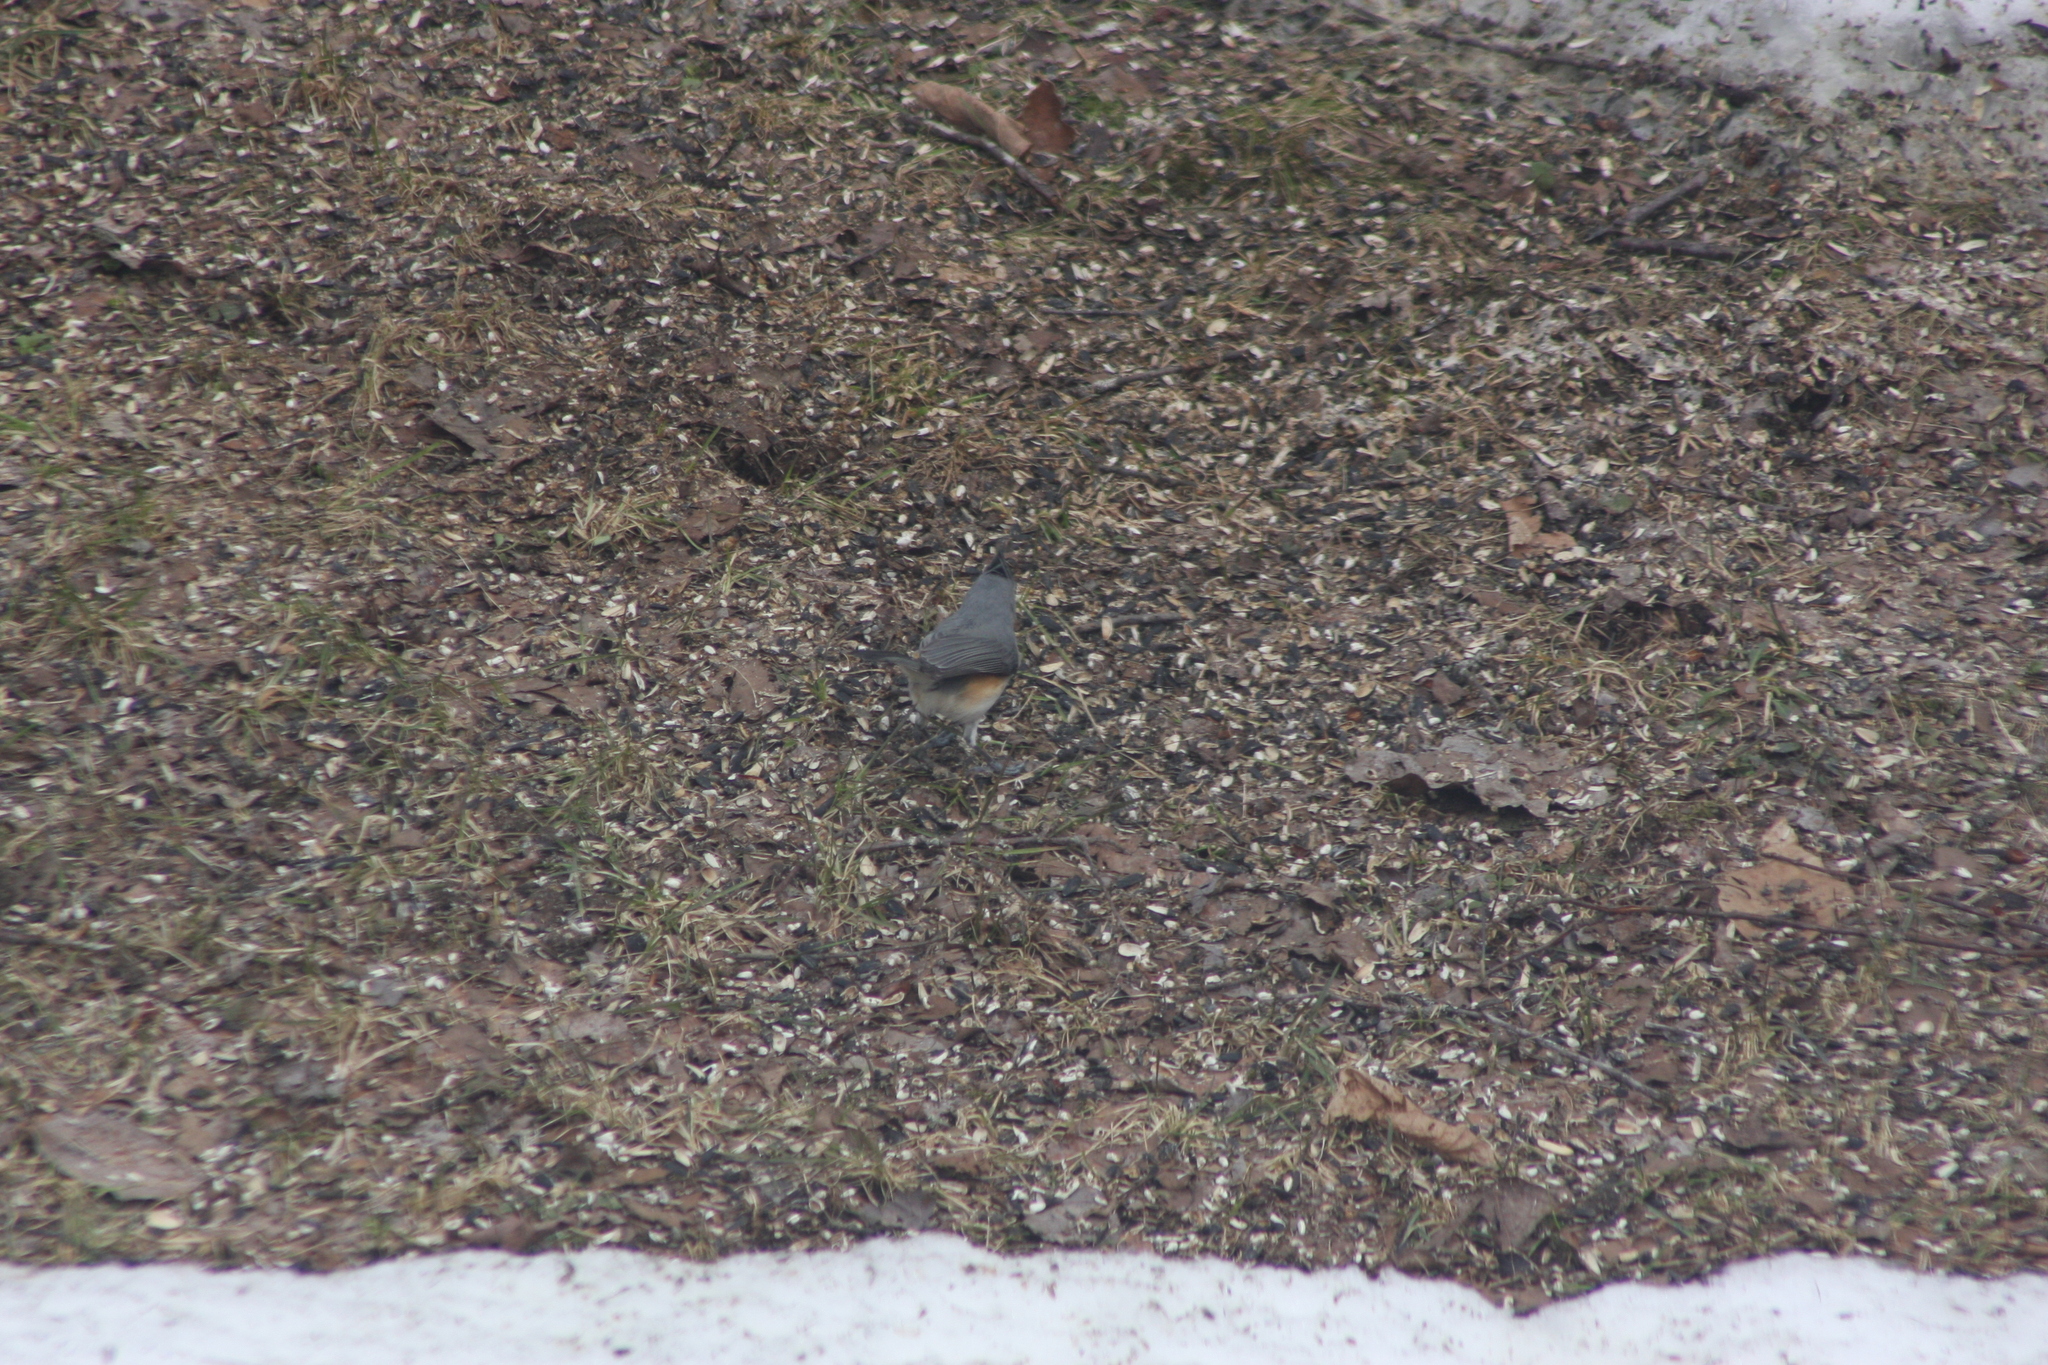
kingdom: Animalia
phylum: Chordata
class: Aves
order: Passeriformes
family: Paridae
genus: Baeolophus
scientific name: Baeolophus bicolor
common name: Tufted titmouse
